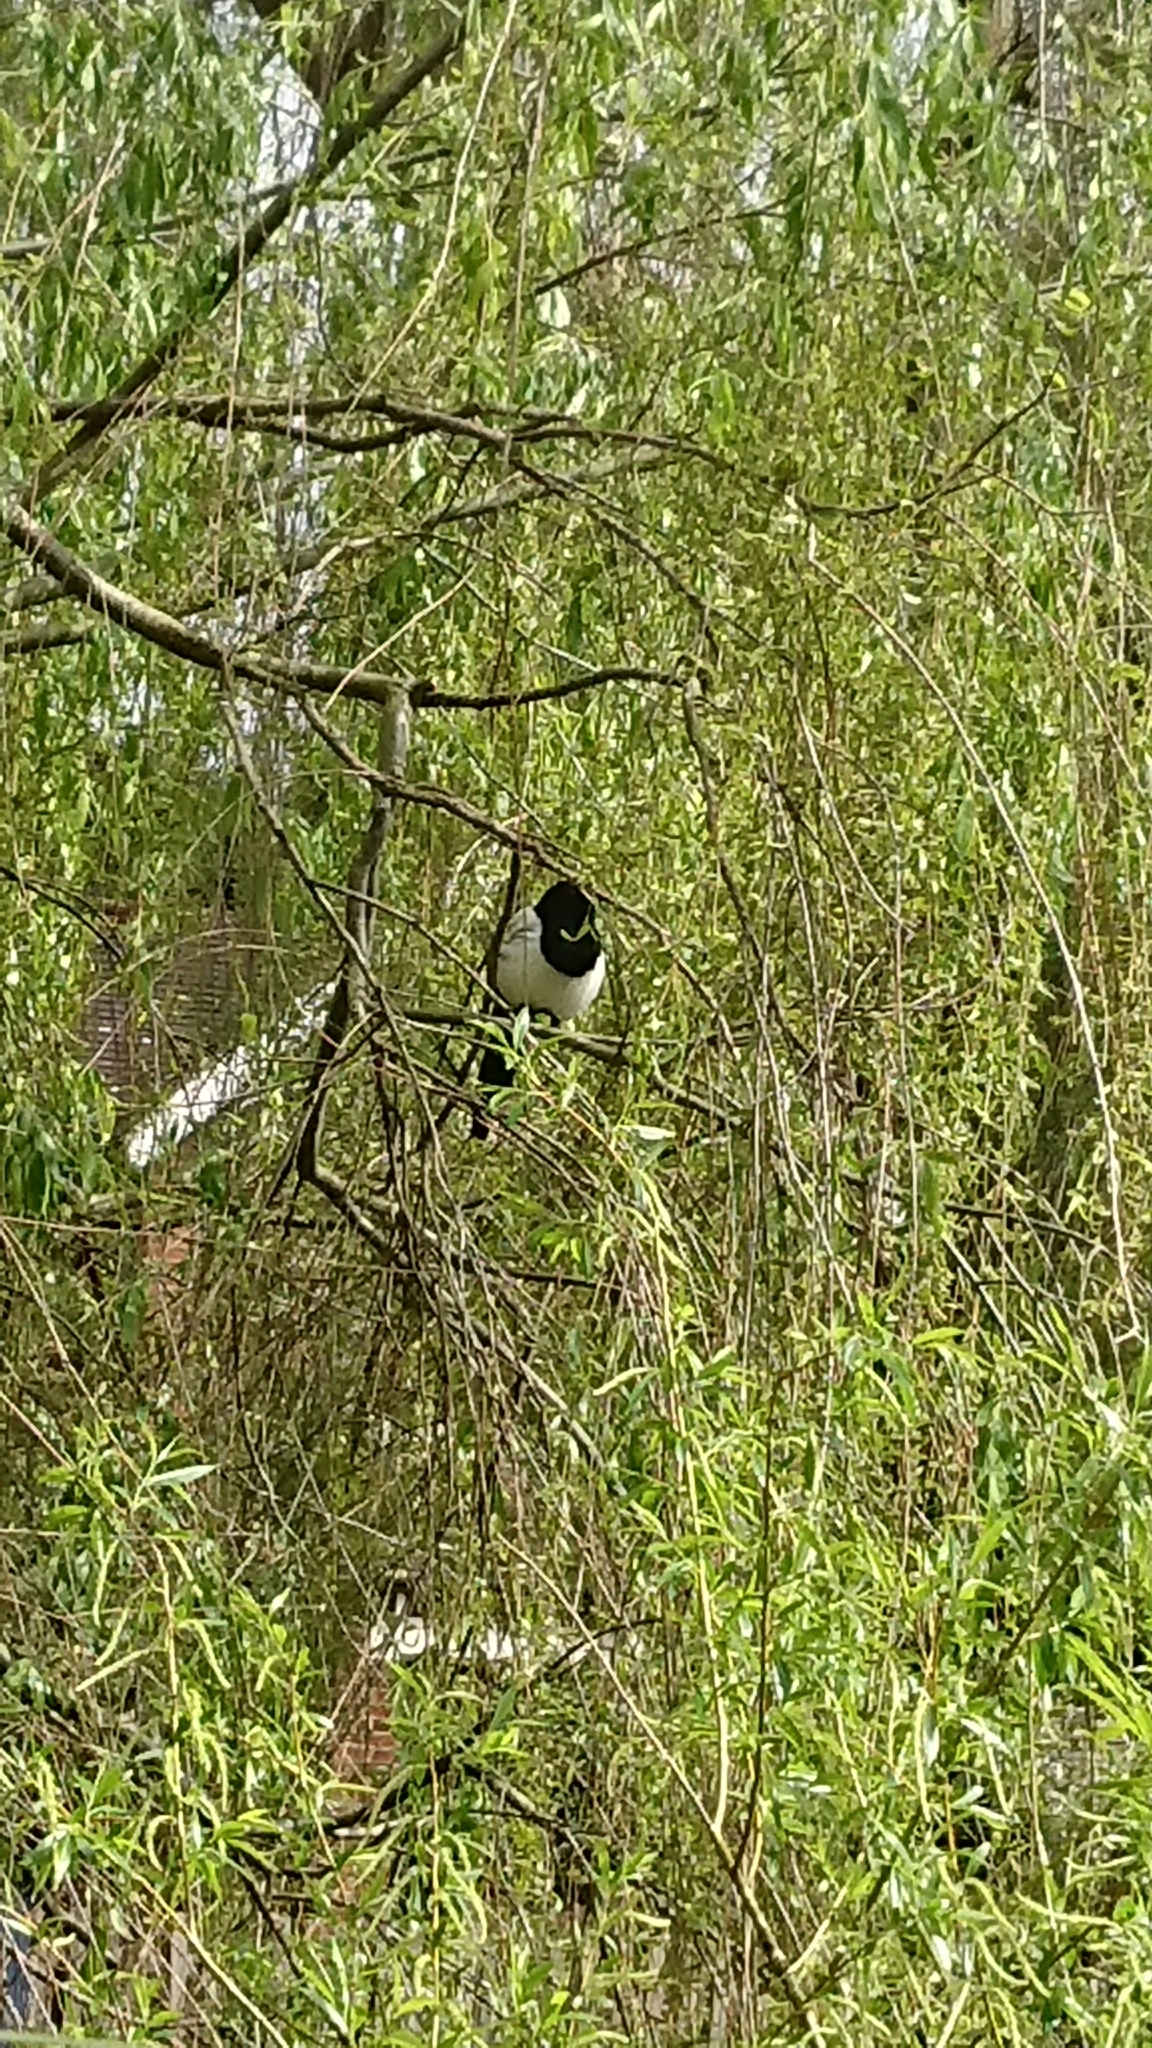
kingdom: Animalia
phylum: Chordata
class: Aves
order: Passeriformes
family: Corvidae
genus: Pica
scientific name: Pica pica
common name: Eurasian magpie
